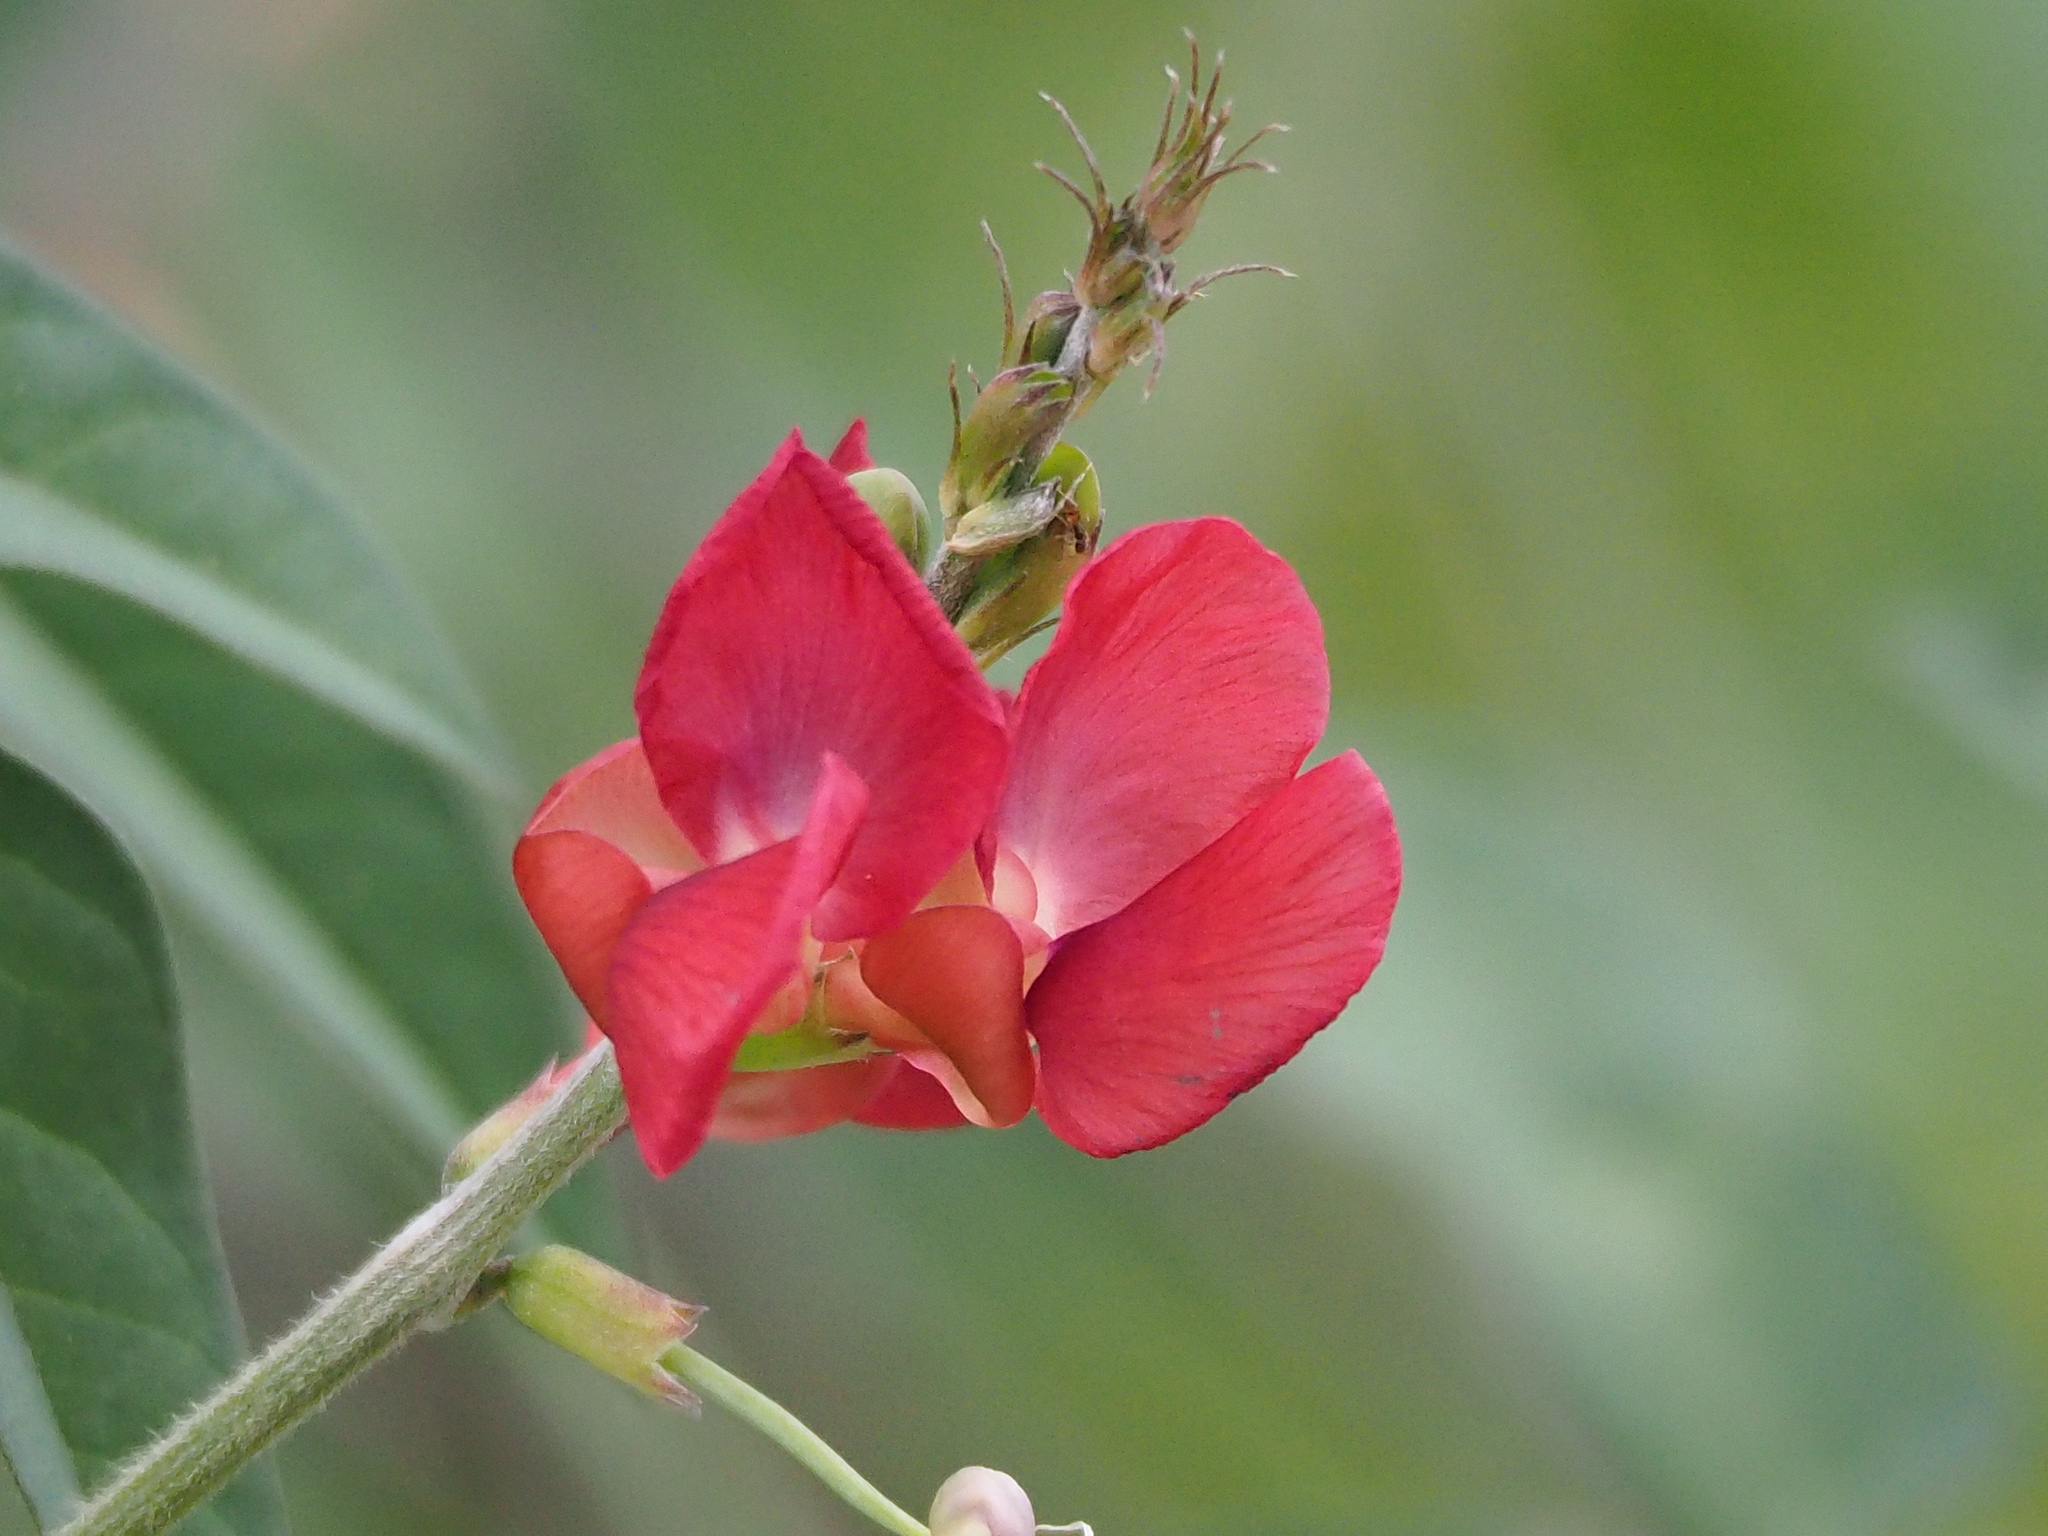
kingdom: Plantae
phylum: Tracheophyta
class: Magnoliopsida
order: Fabales
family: Fabaceae
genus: Macroptilium
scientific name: Macroptilium lathyroides
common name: Wild bushbean
